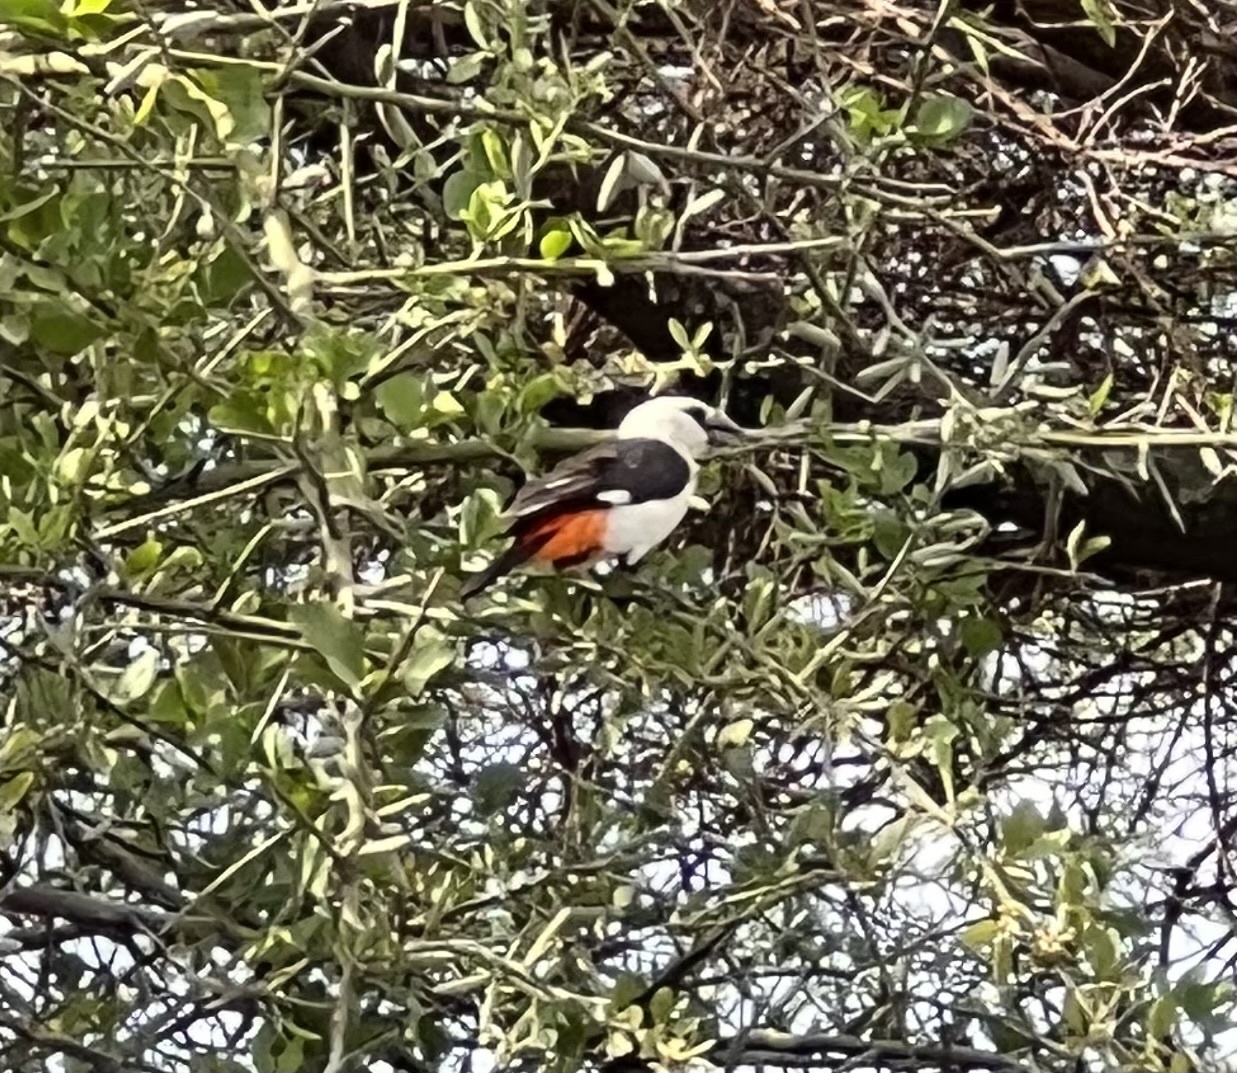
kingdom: Animalia
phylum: Chordata
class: Aves
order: Passeriformes
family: Ploceidae
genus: Dinemellia
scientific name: Dinemellia dinemelli
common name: White-headed buffalo weaver
